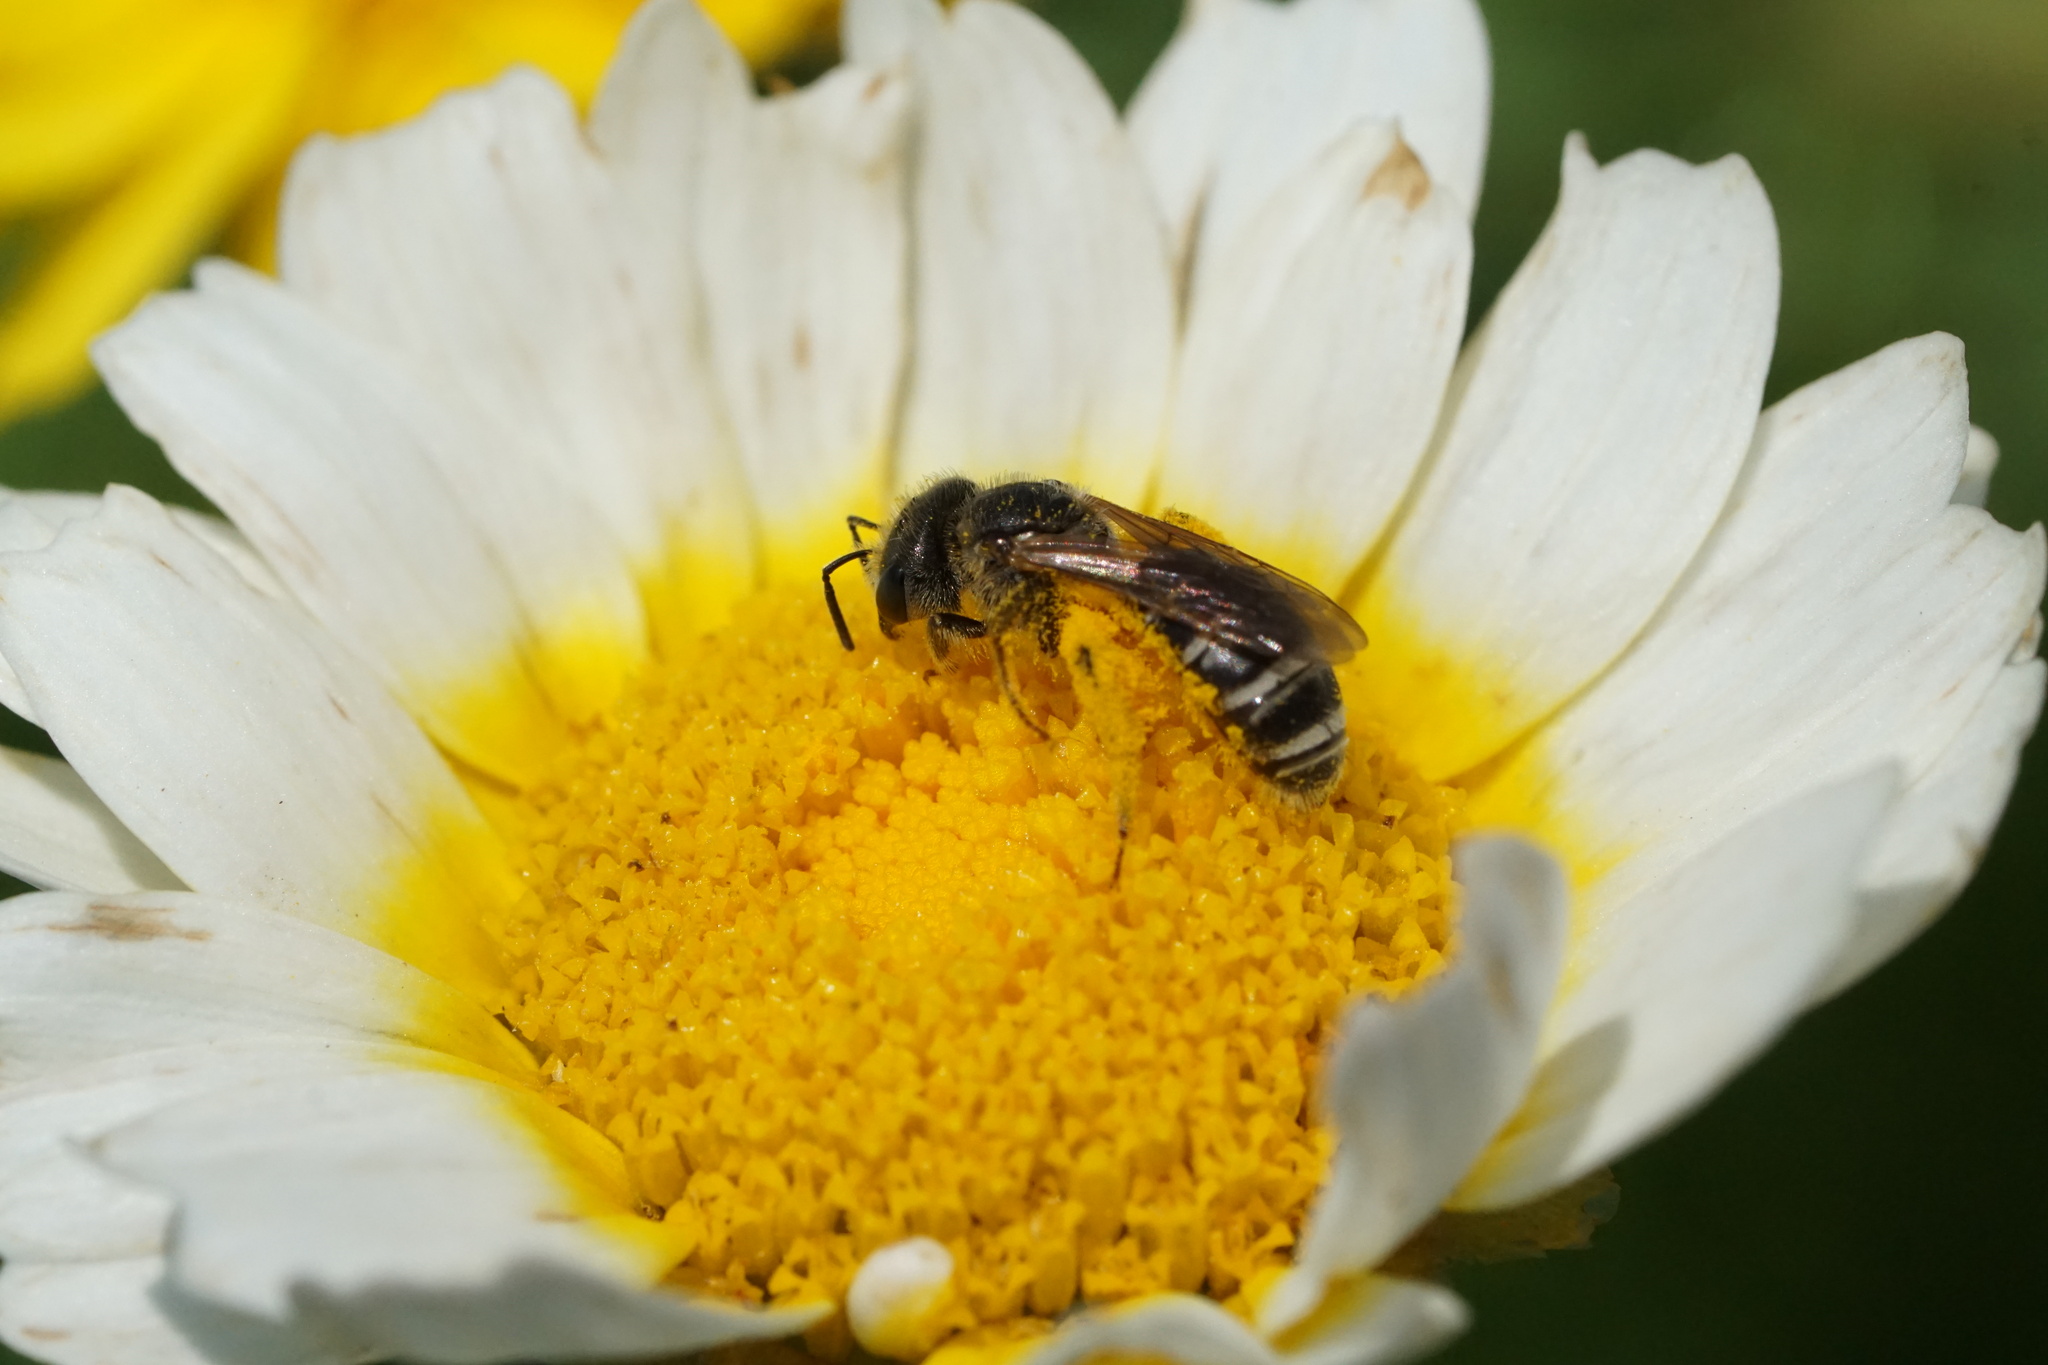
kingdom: Animalia
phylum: Arthropoda
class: Insecta
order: Hymenoptera
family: Halictidae
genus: Halictus
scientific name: Halictus ligatus
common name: Ligated furrow bee
